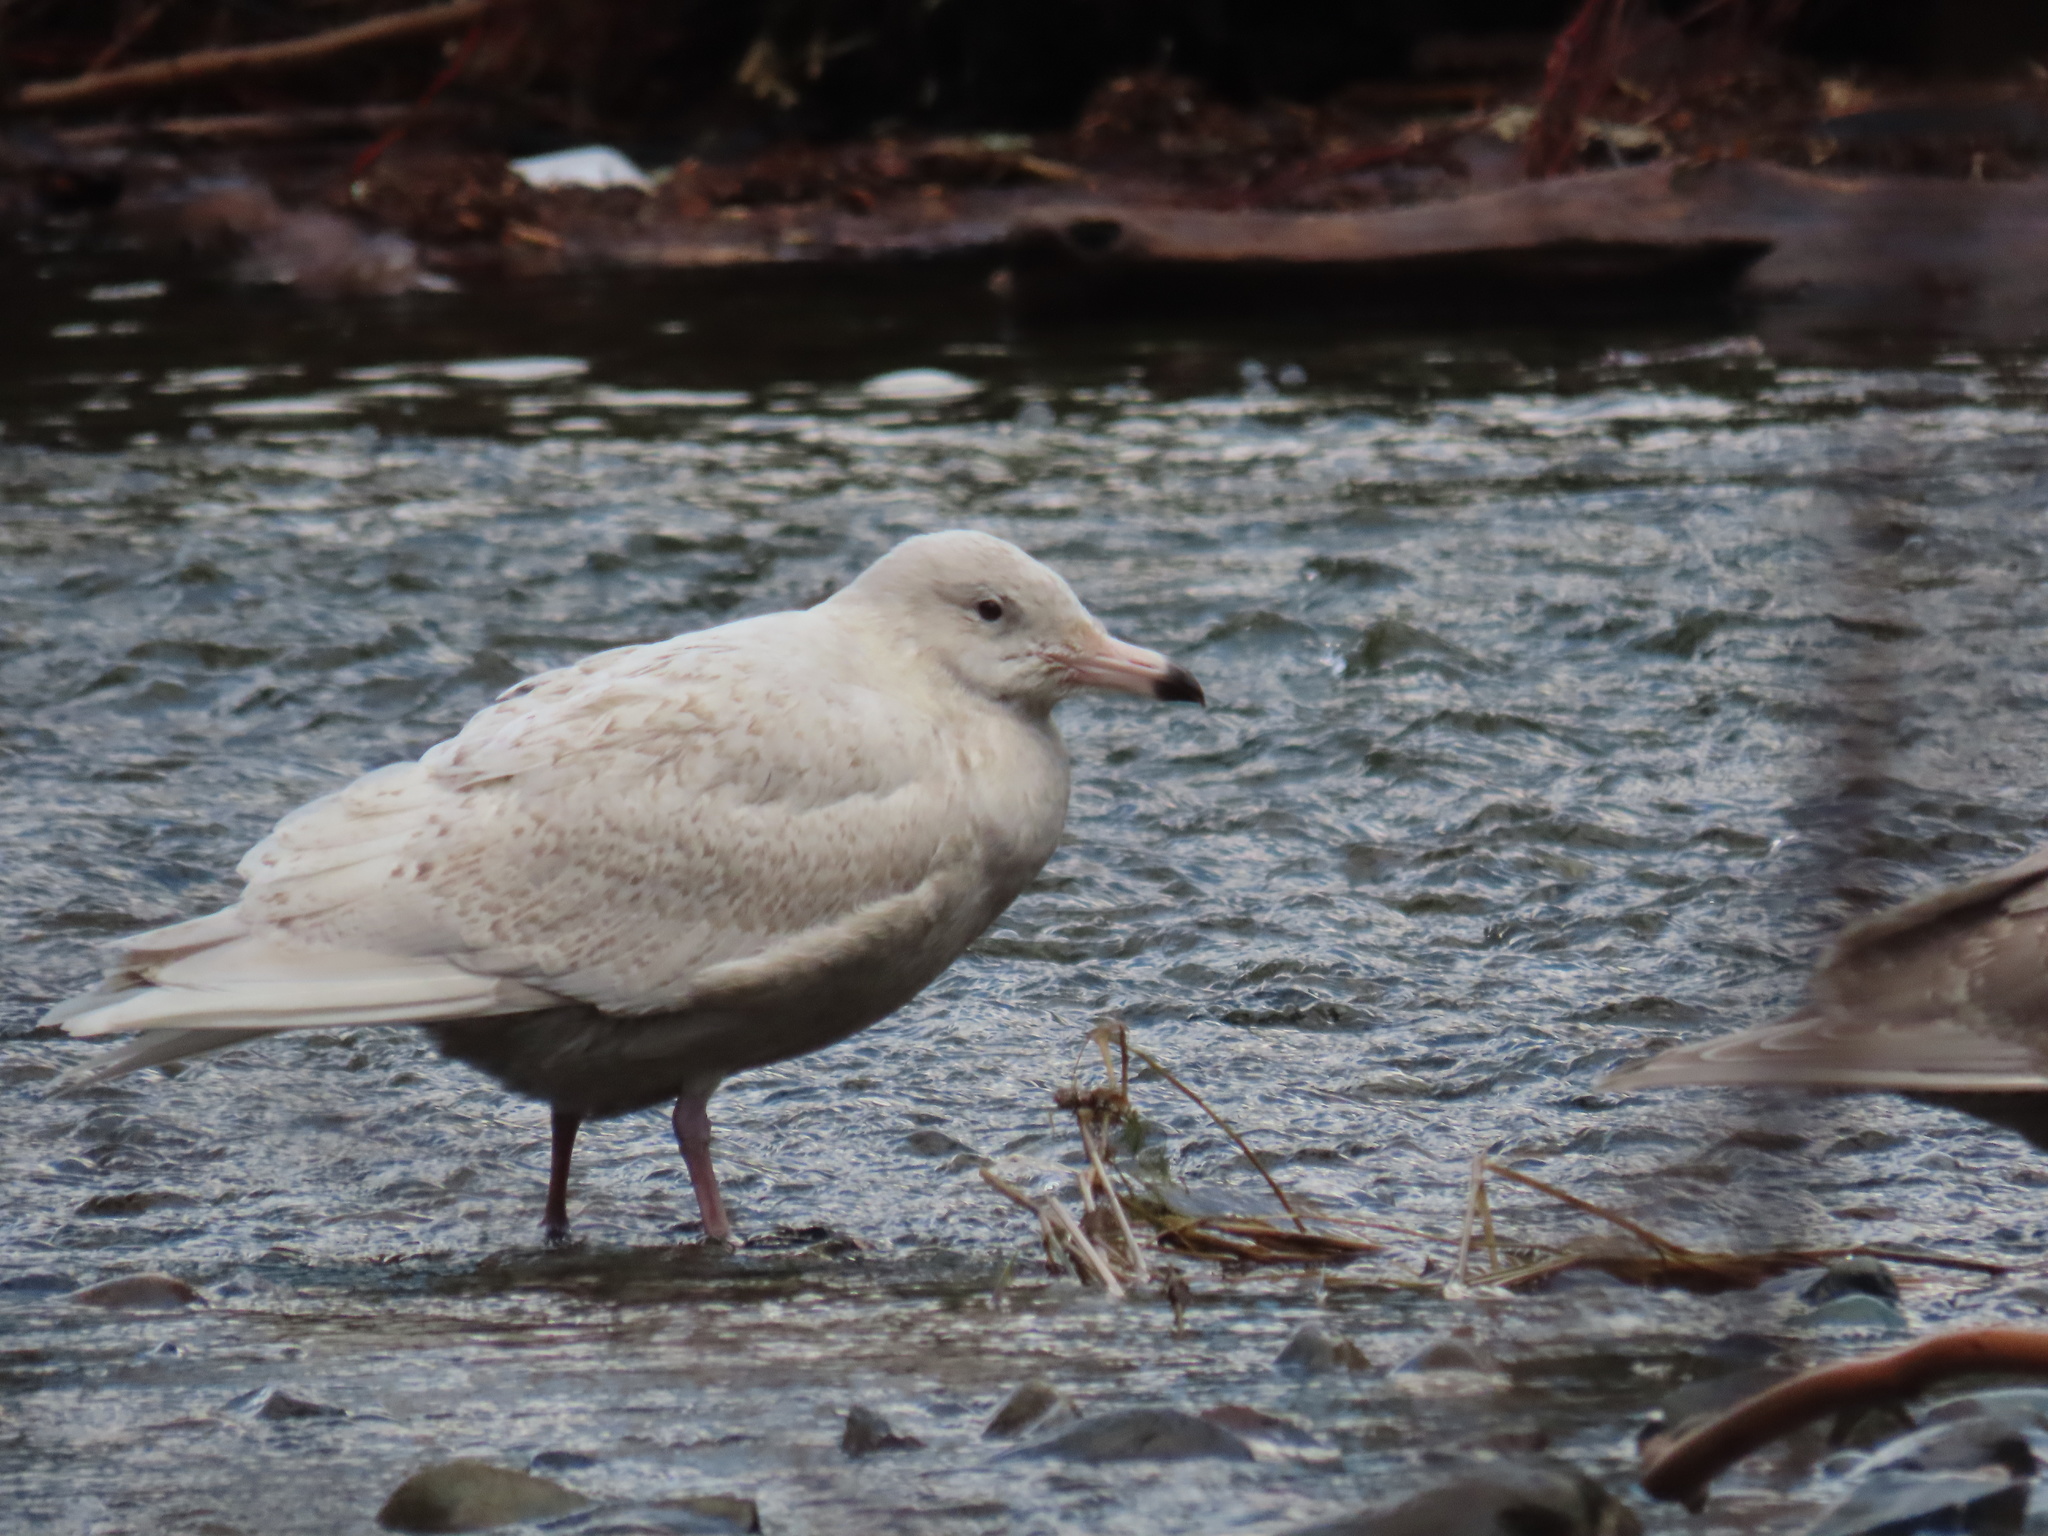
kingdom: Animalia
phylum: Chordata
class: Aves
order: Charadriiformes
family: Laridae
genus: Larus
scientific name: Larus hyperboreus
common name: Glaucous gull
